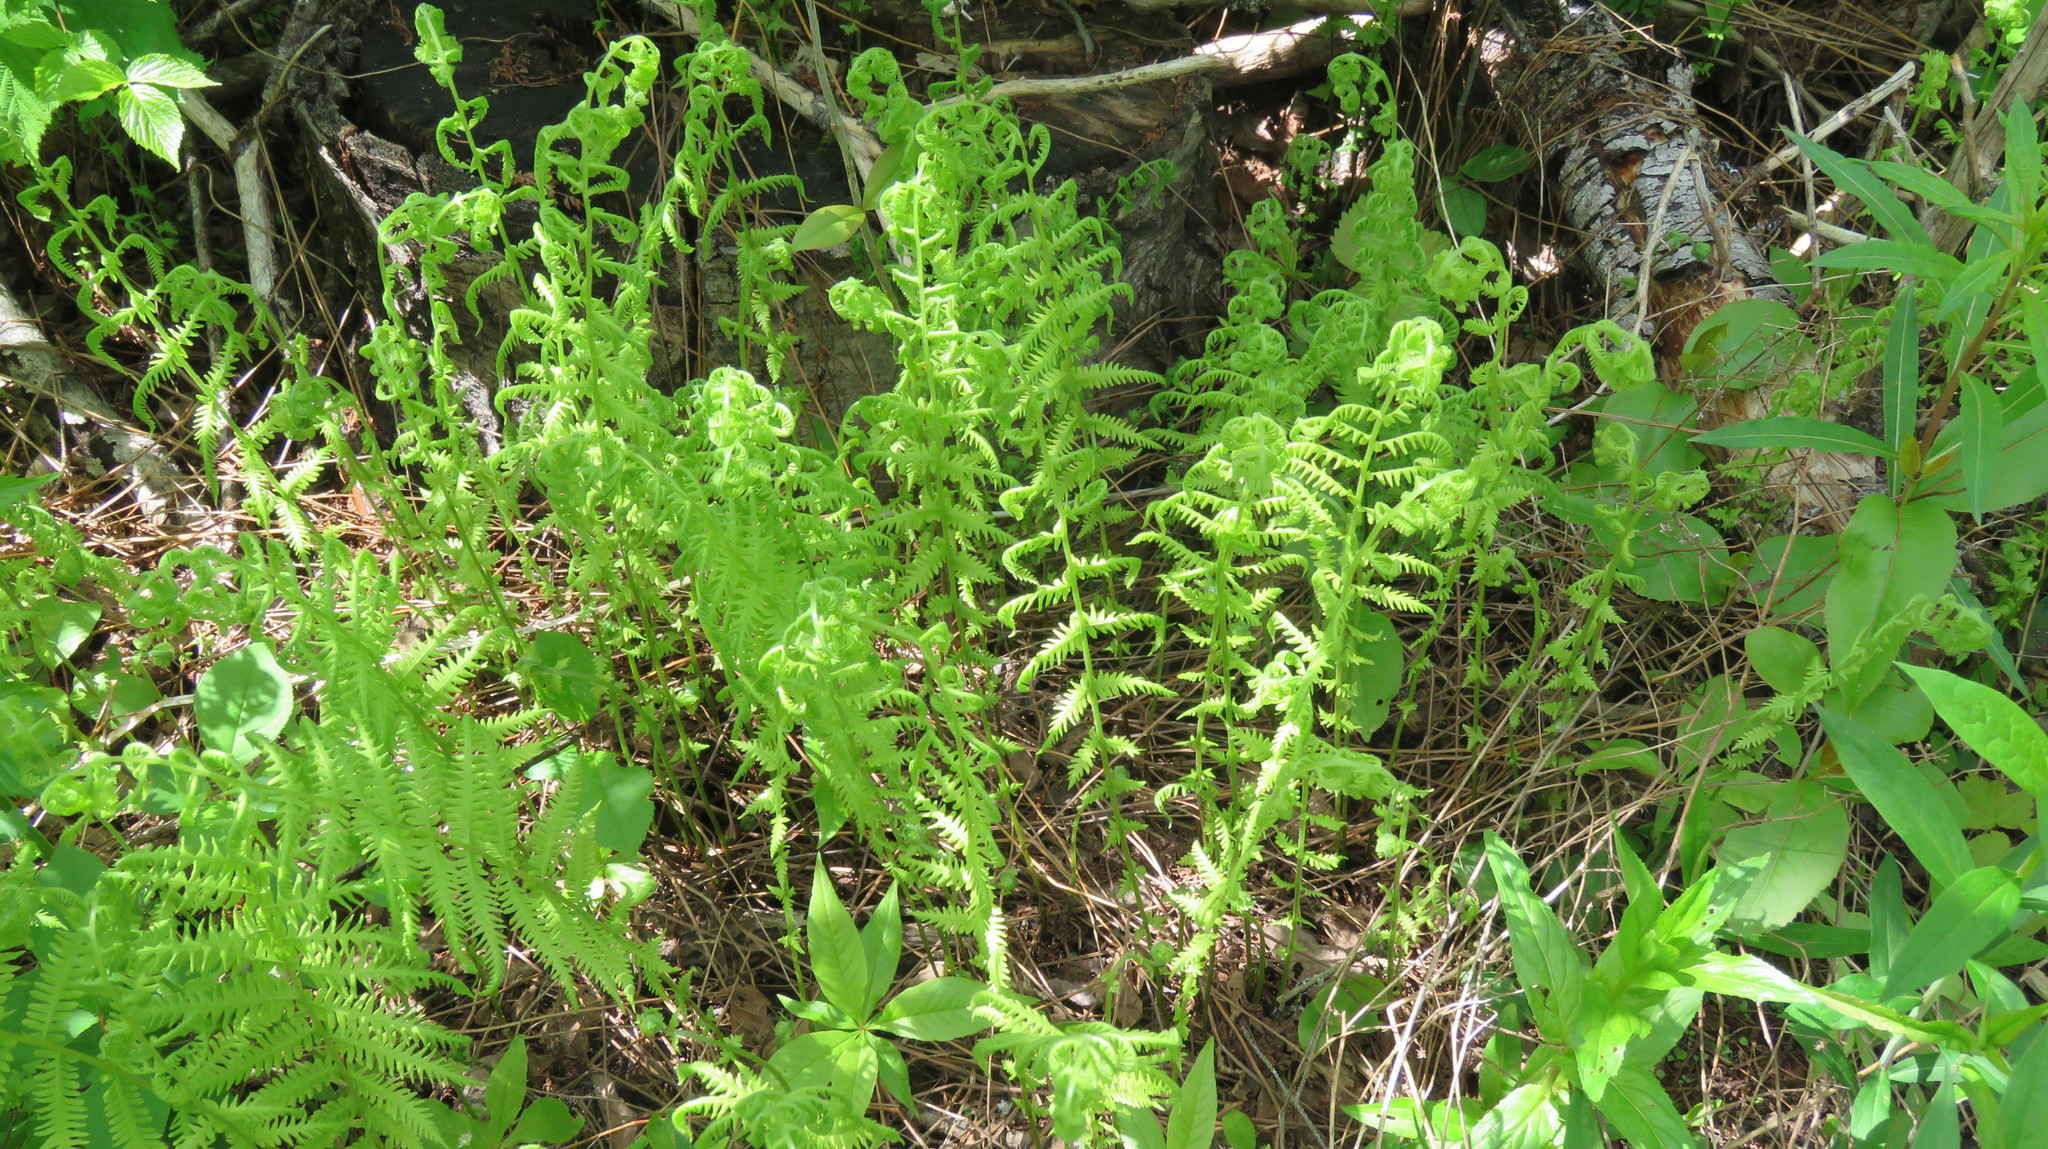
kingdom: Plantae
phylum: Tracheophyta
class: Polypodiopsida
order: Polypodiales
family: Thelypteridaceae
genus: Amauropelta
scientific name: Amauropelta noveboracensis
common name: New york fern
